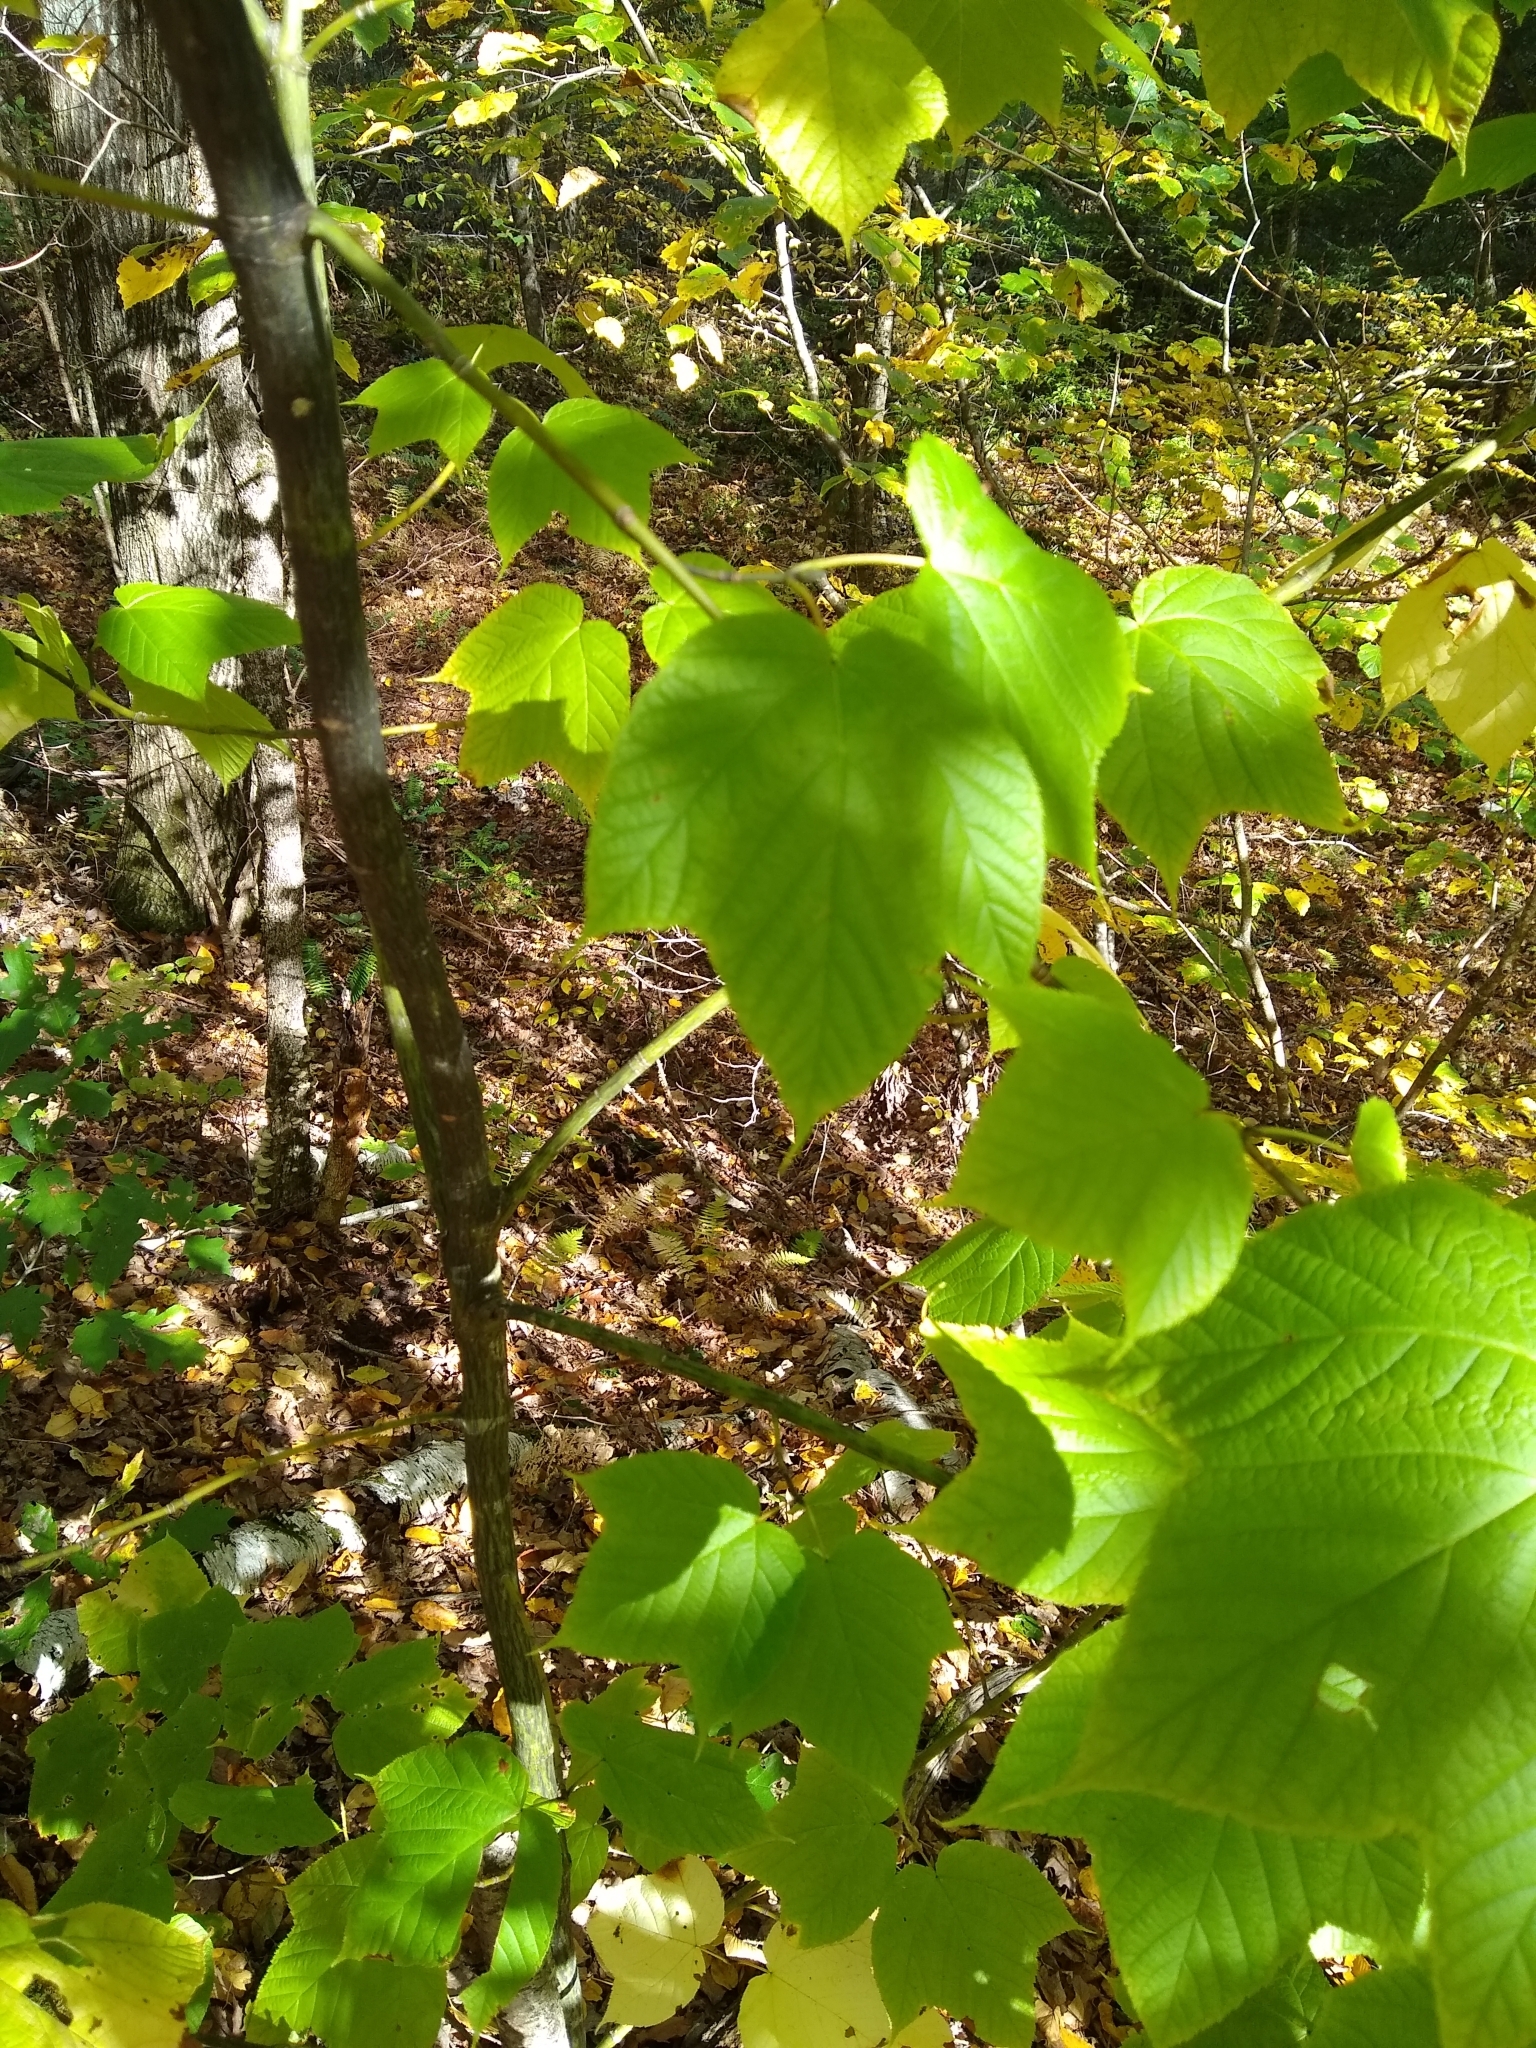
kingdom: Plantae
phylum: Tracheophyta
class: Magnoliopsida
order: Sapindales
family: Sapindaceae
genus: Acer
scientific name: Acer pensylvanicum
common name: Moosewood
